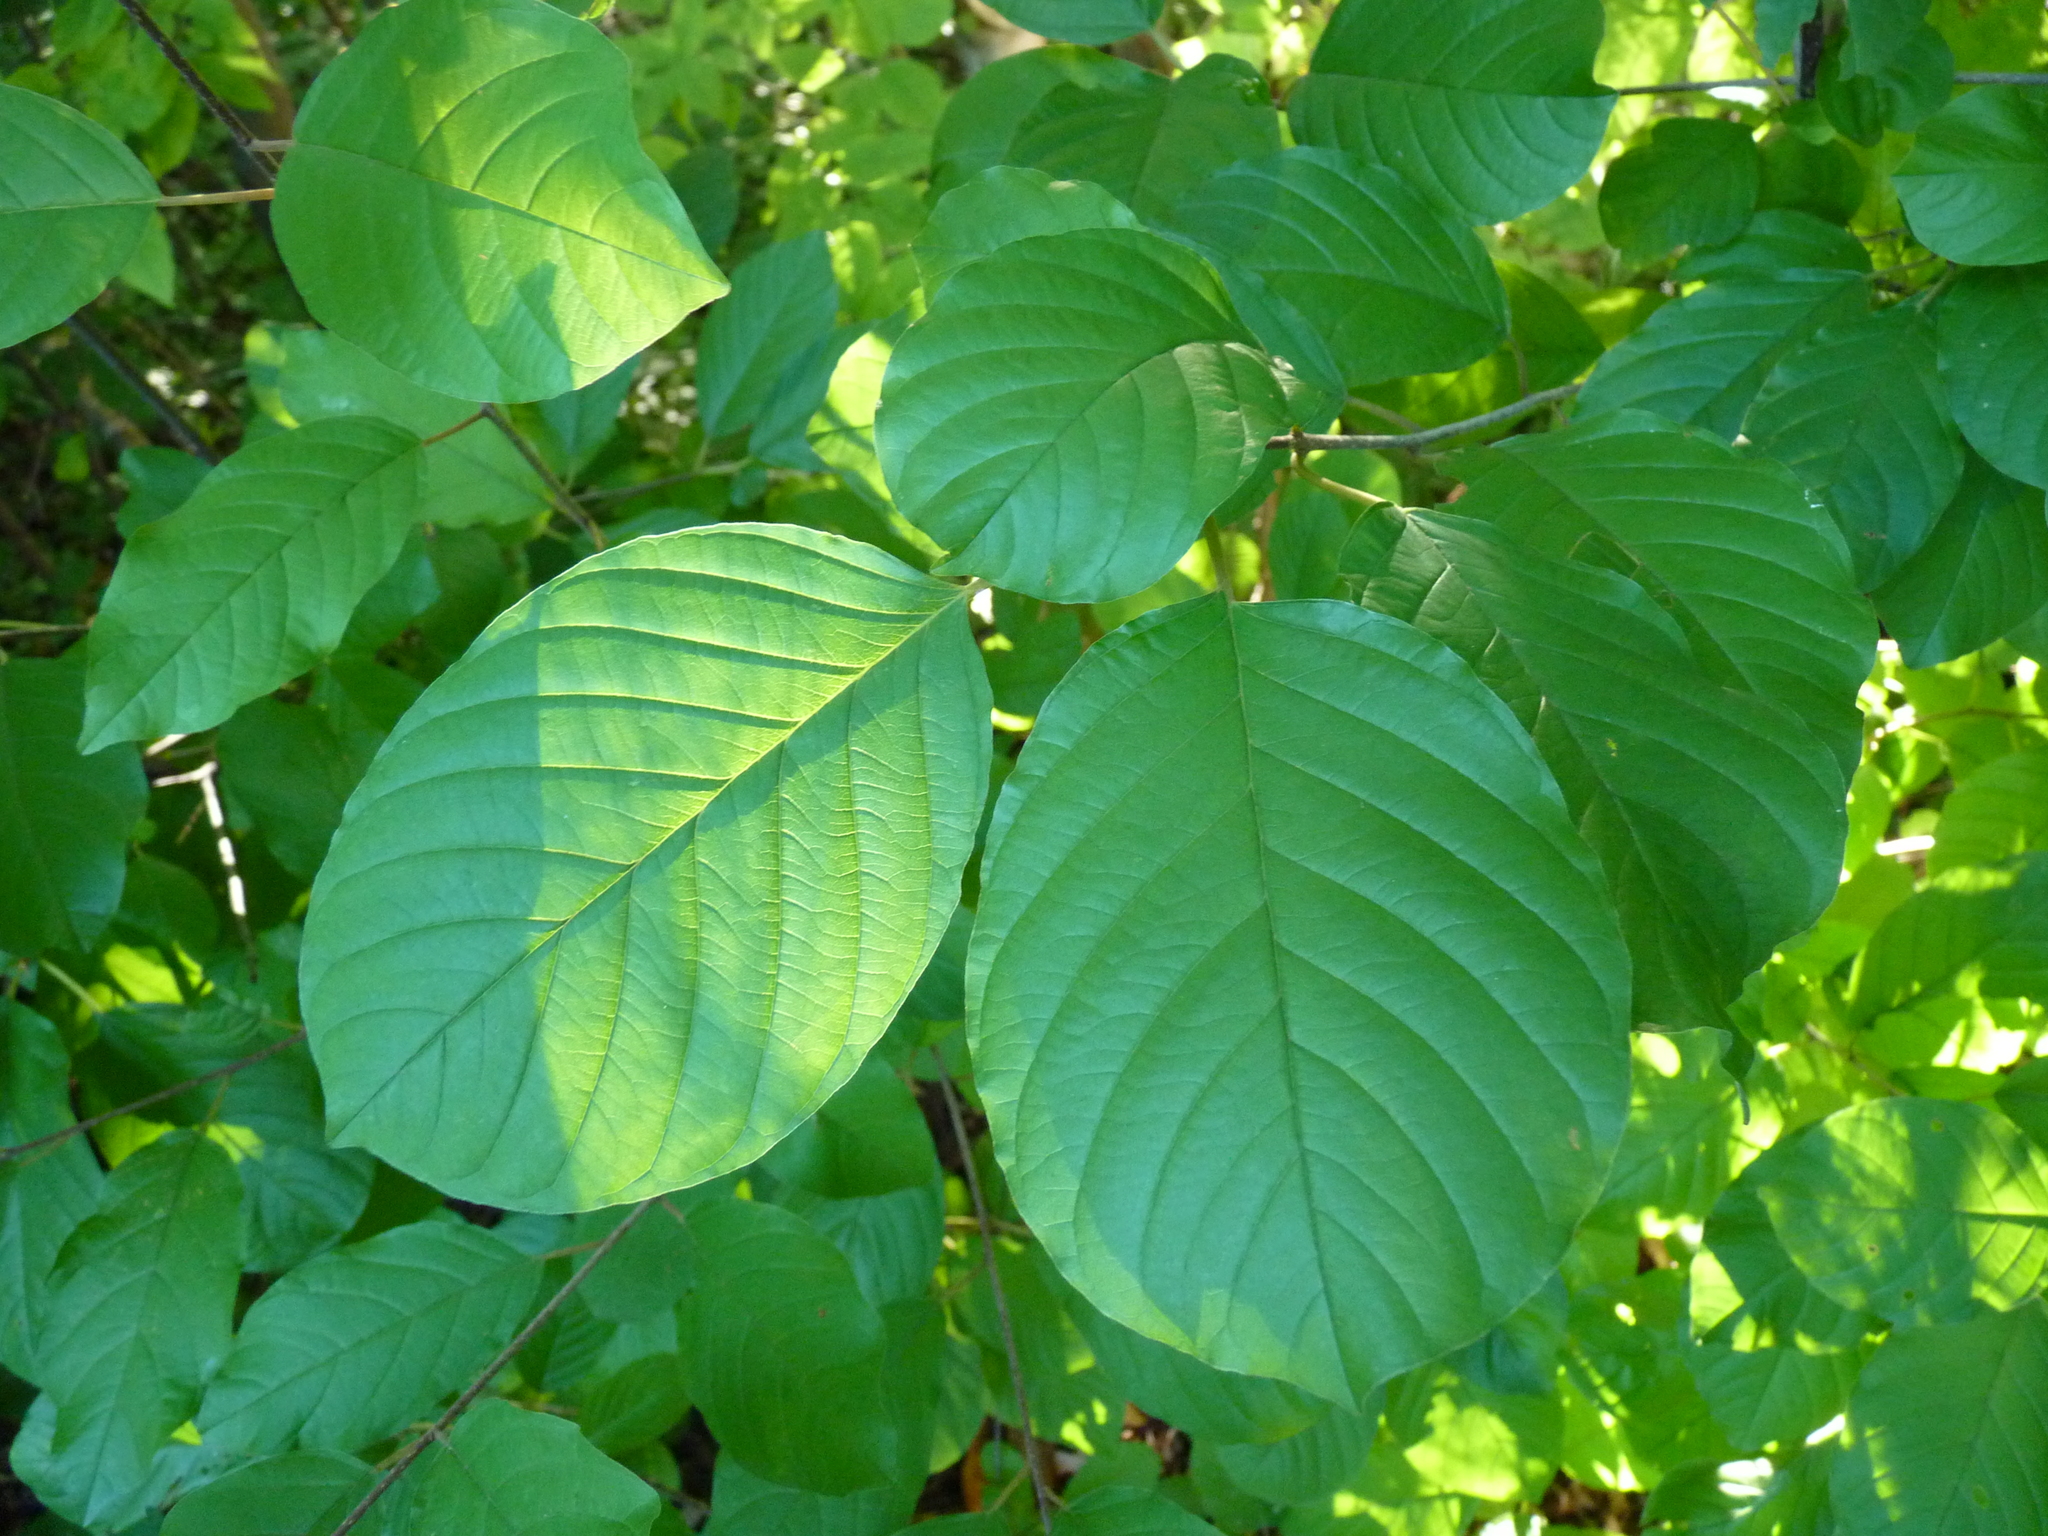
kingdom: Plantae
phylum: Tracheophyta
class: Magnoliopsida
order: Rosales
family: Rhamnaceae
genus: Frangula
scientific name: Frangula alnus
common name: Alder buckthorn
